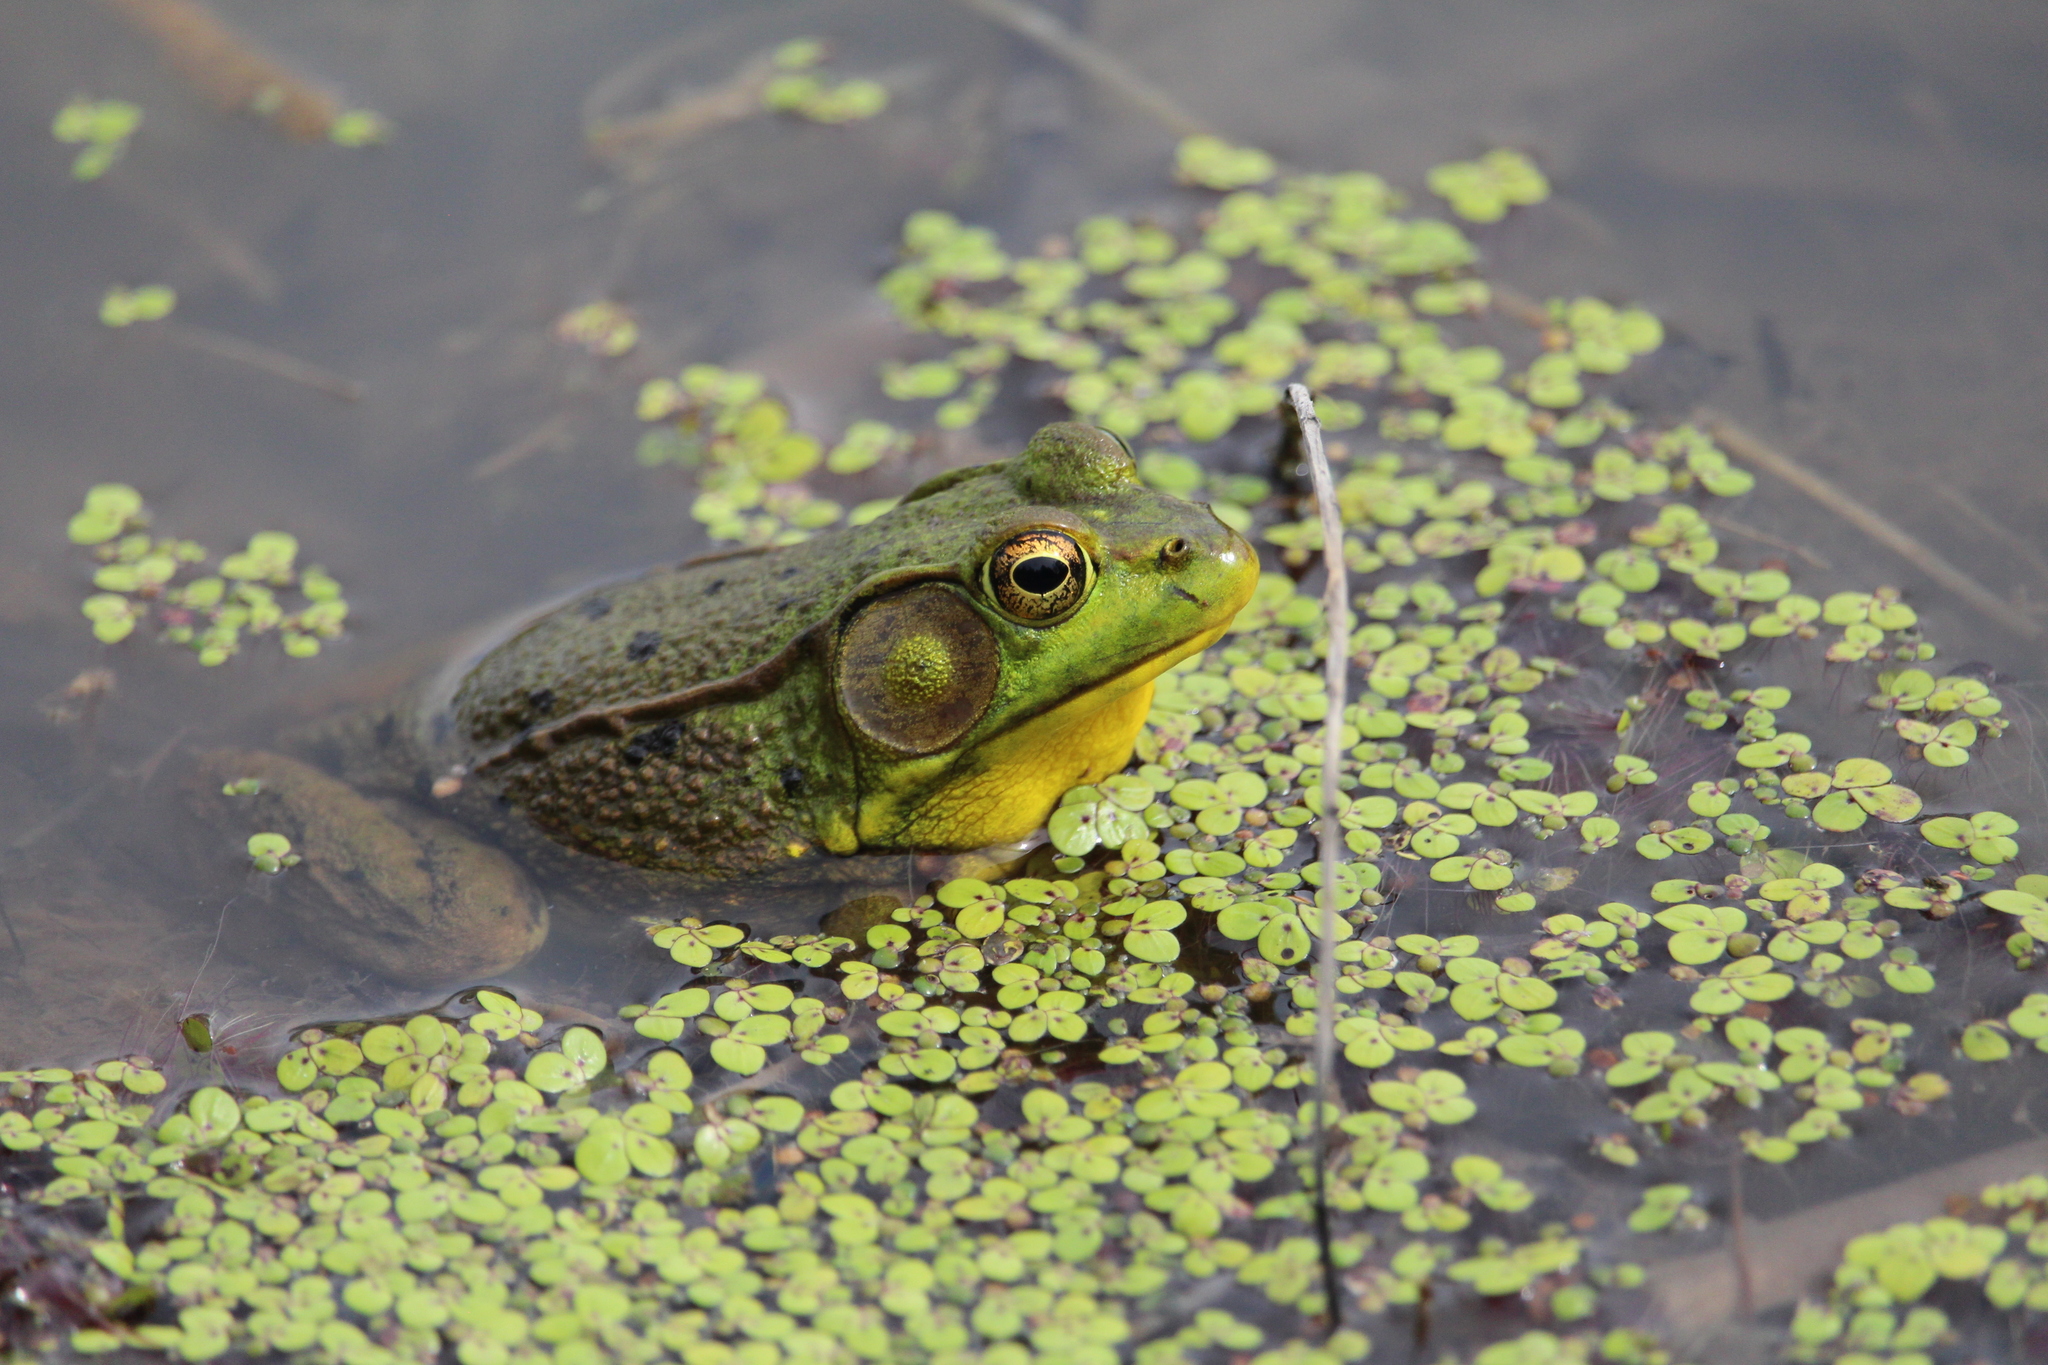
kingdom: Animalia
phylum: Chordata
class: Amphibia
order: Anura
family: Ranidae
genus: Lithobates
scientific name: Lithobates clamitans
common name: Green frog
